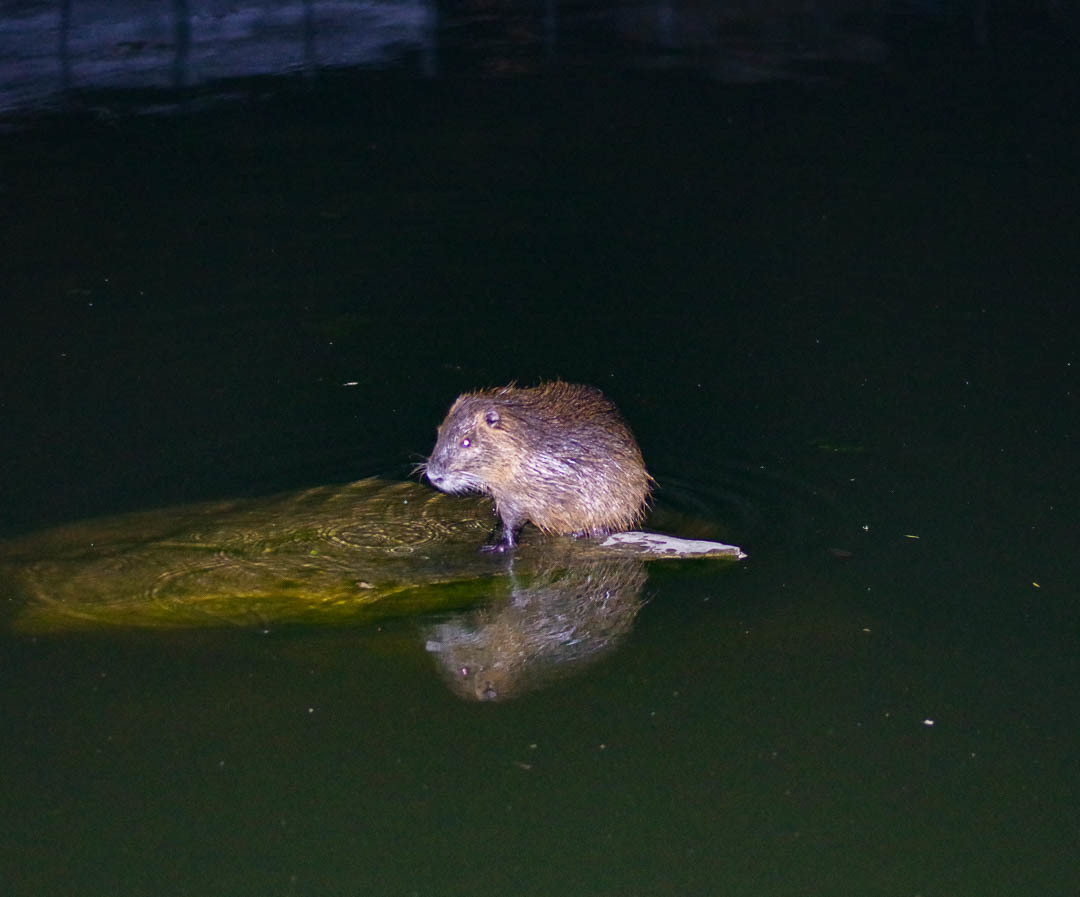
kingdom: Animalia
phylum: Chordata
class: Mammalia
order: Rodentia
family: Myocastoridae
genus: Myocastor
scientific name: Myocastor coypus
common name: Coypu
